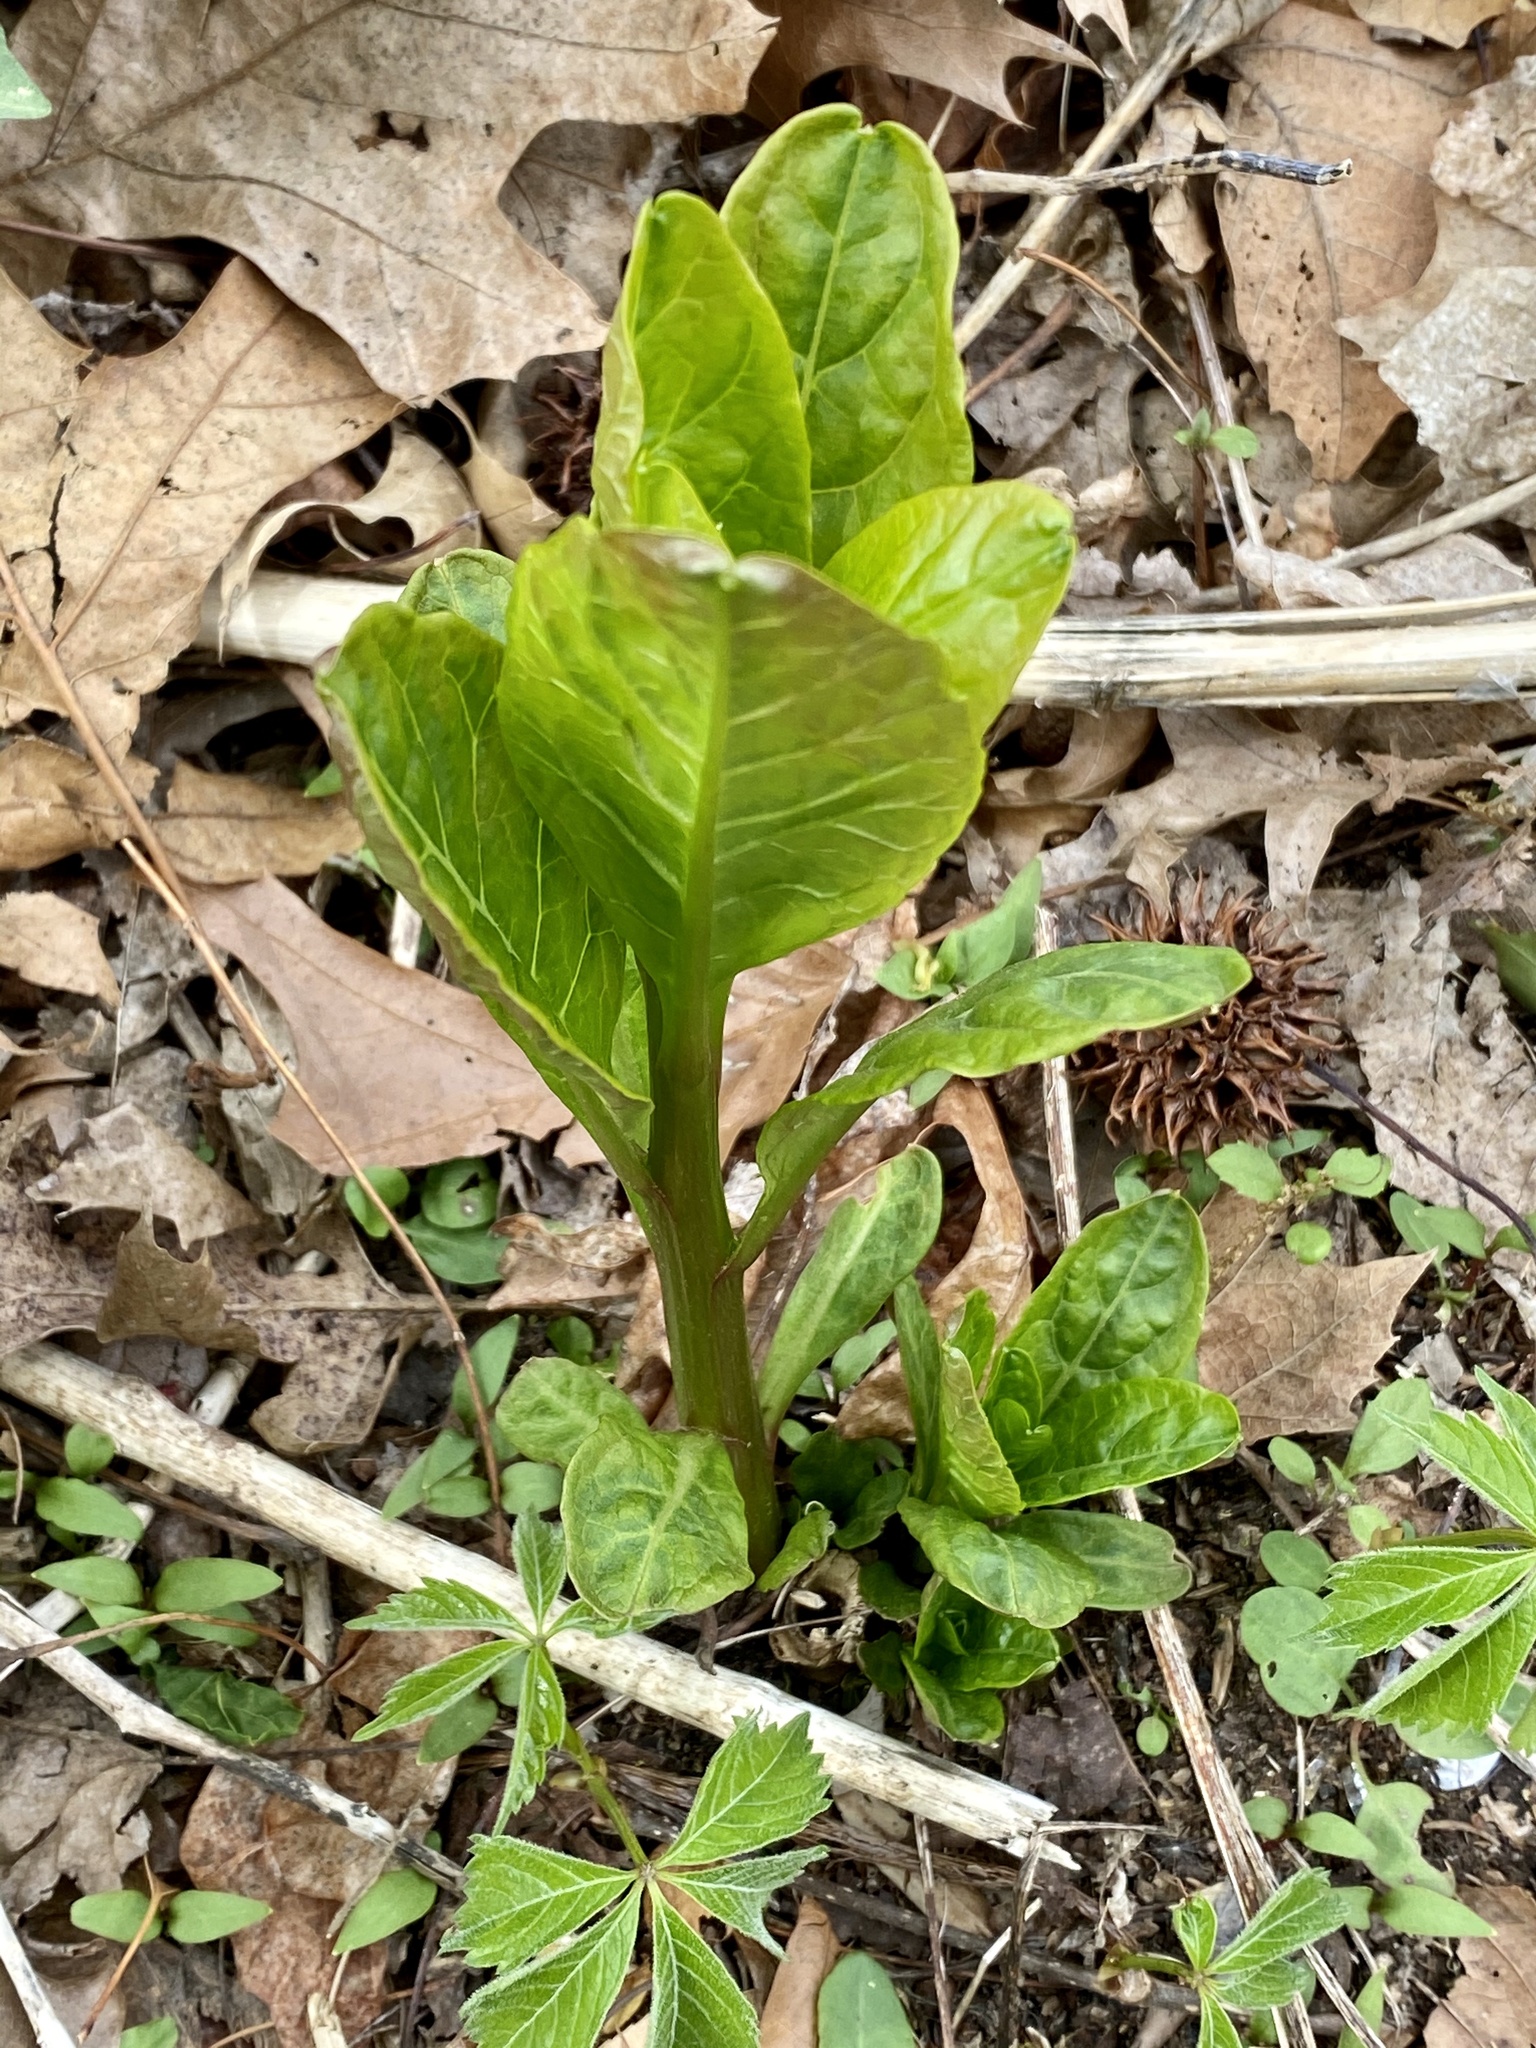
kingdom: Plantae
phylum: Tracheophyta
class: Magnoliopsida
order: Caryophyllales
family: Phytolaccaceae
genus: Phytolacca
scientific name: Phytolacca americana
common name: American pokeweed
